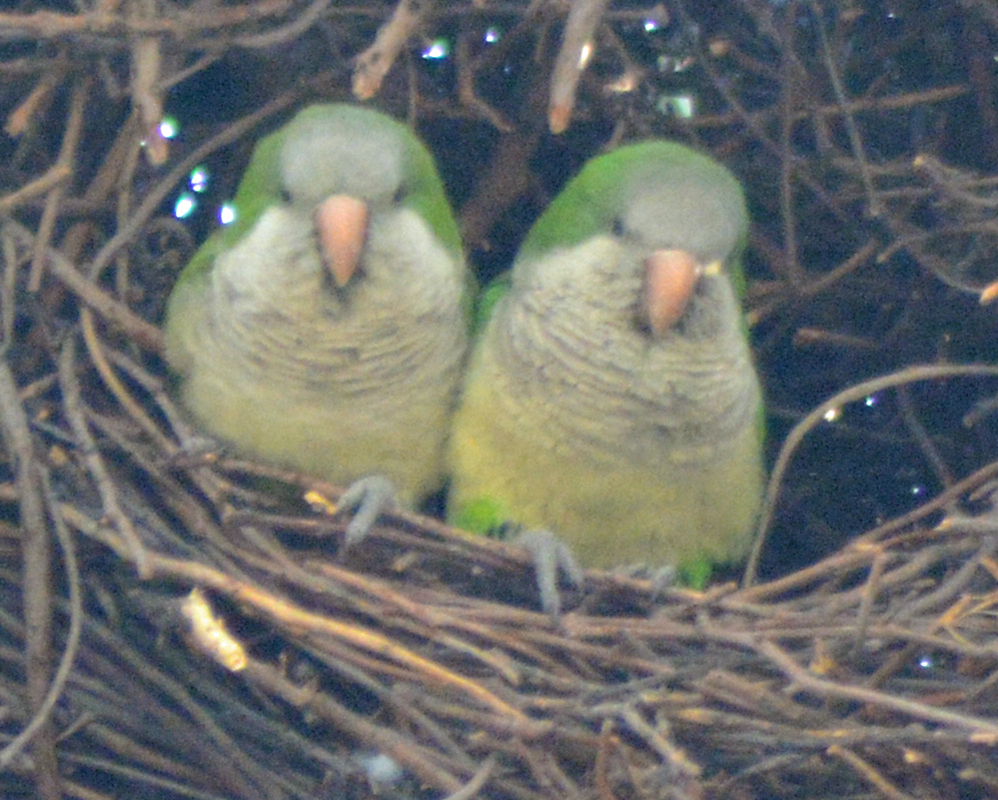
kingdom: Animalia
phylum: Chordata
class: Aves
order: Psittaciformes
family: Psittacidae
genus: Myiopsitta
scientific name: Myiopsitta monachus
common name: Monk parakeet
